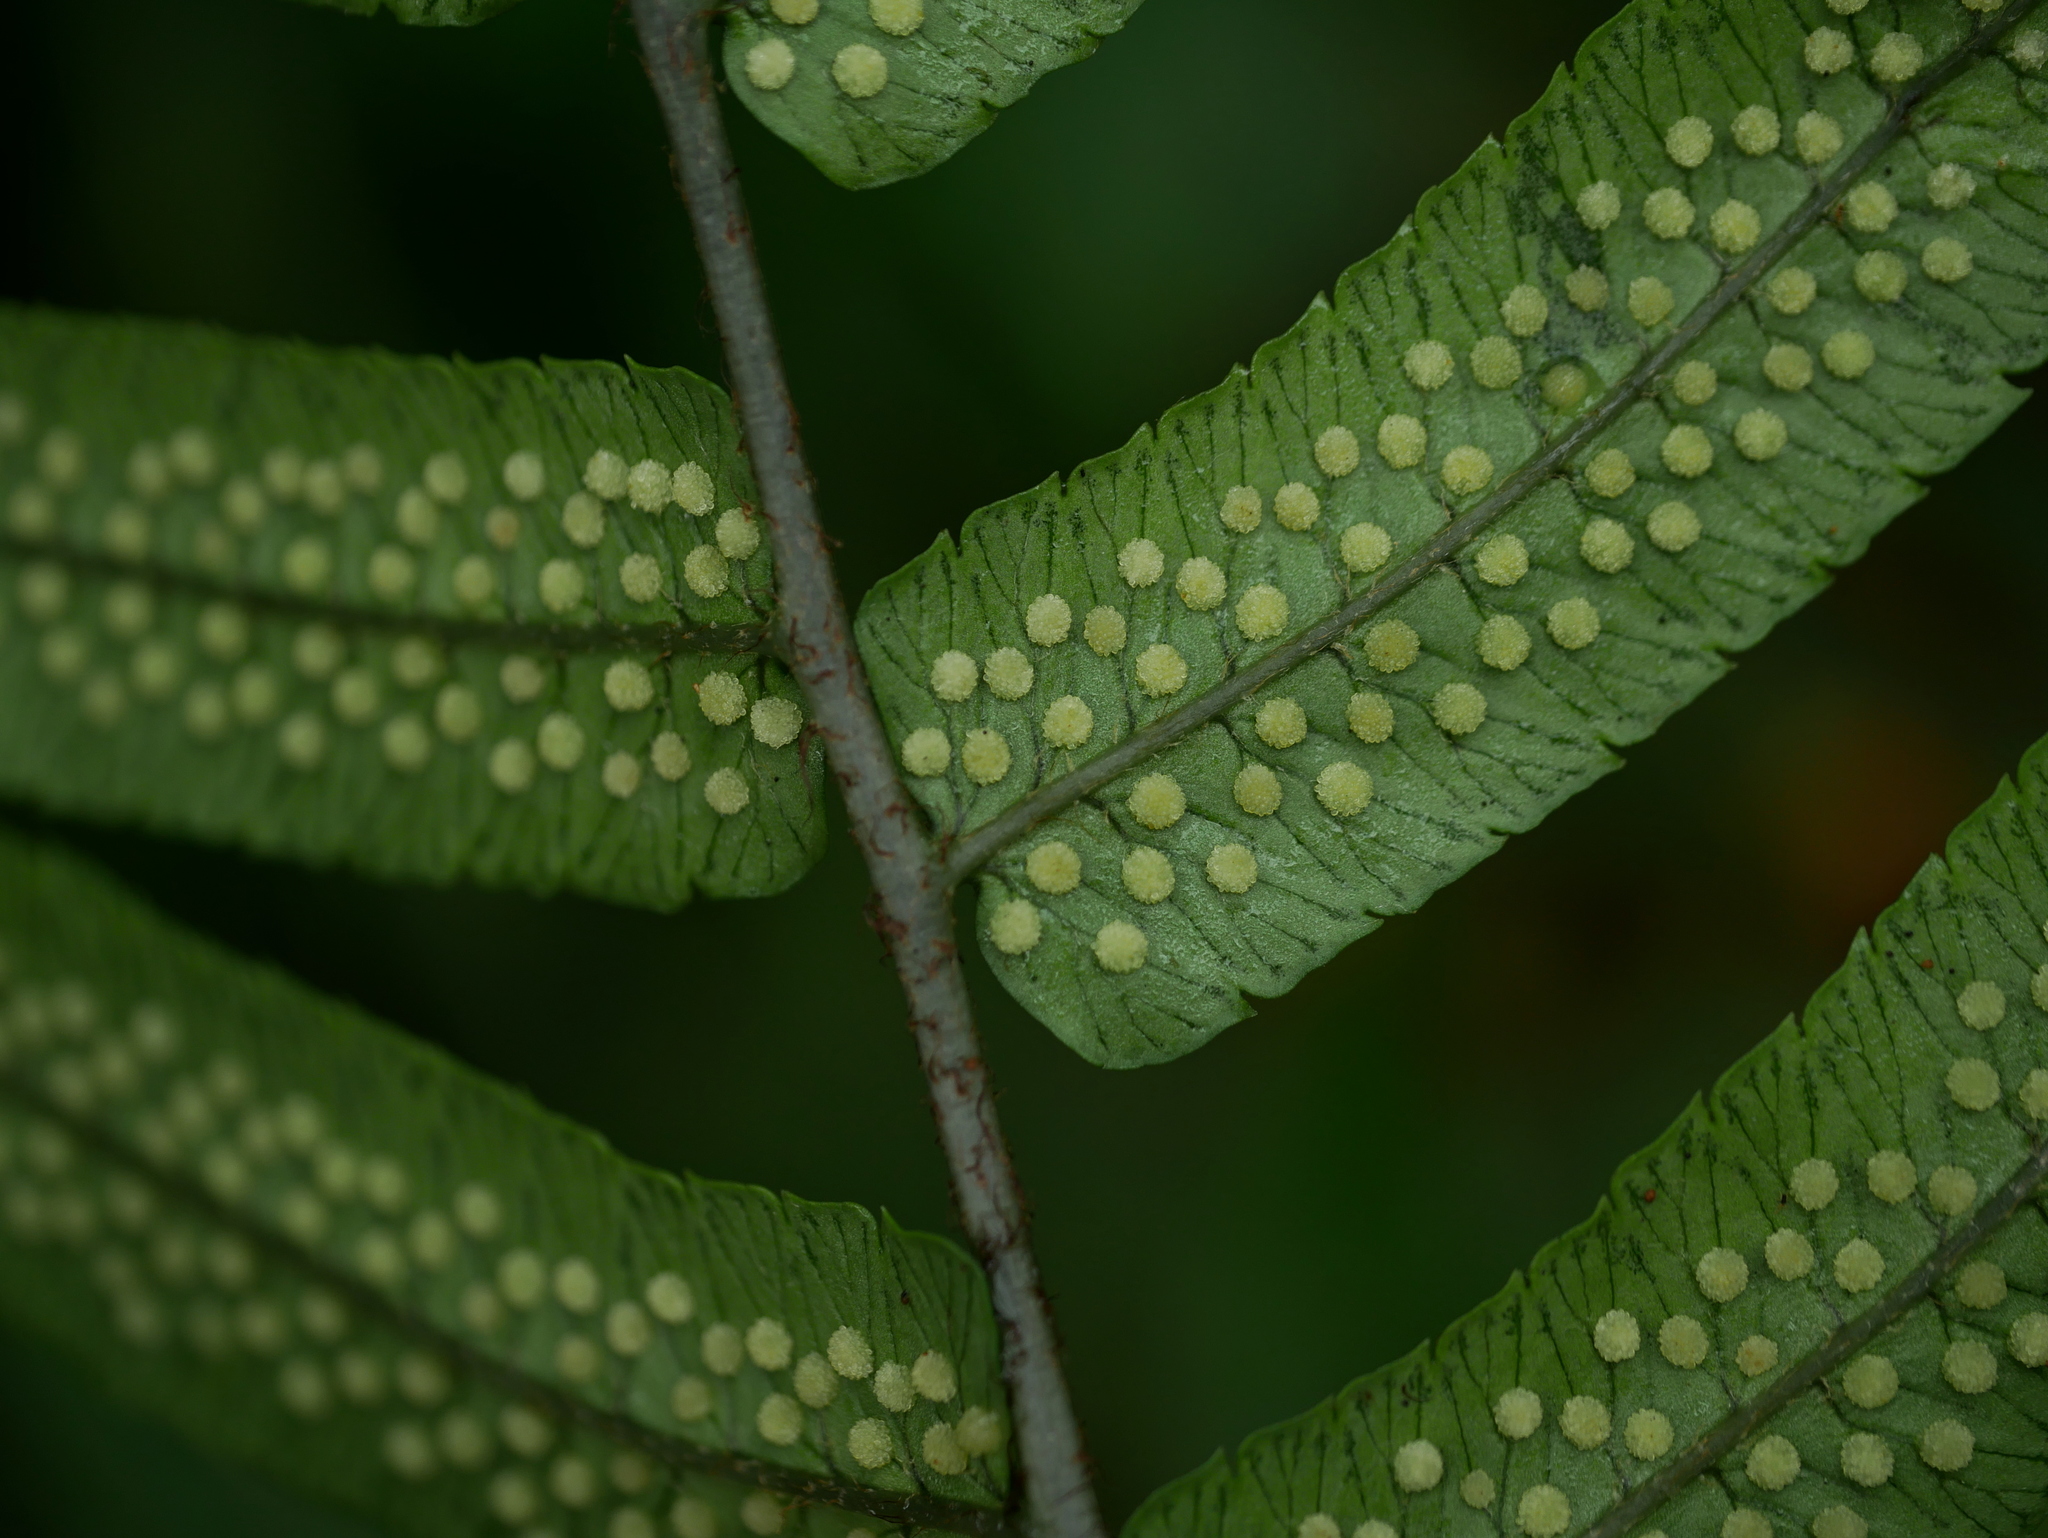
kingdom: Plantae
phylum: Tracheophyta
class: Polypodiopsida
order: Polypodiales
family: Dryopteridaceae
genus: Dryopteris
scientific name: Dryopteris scottii
